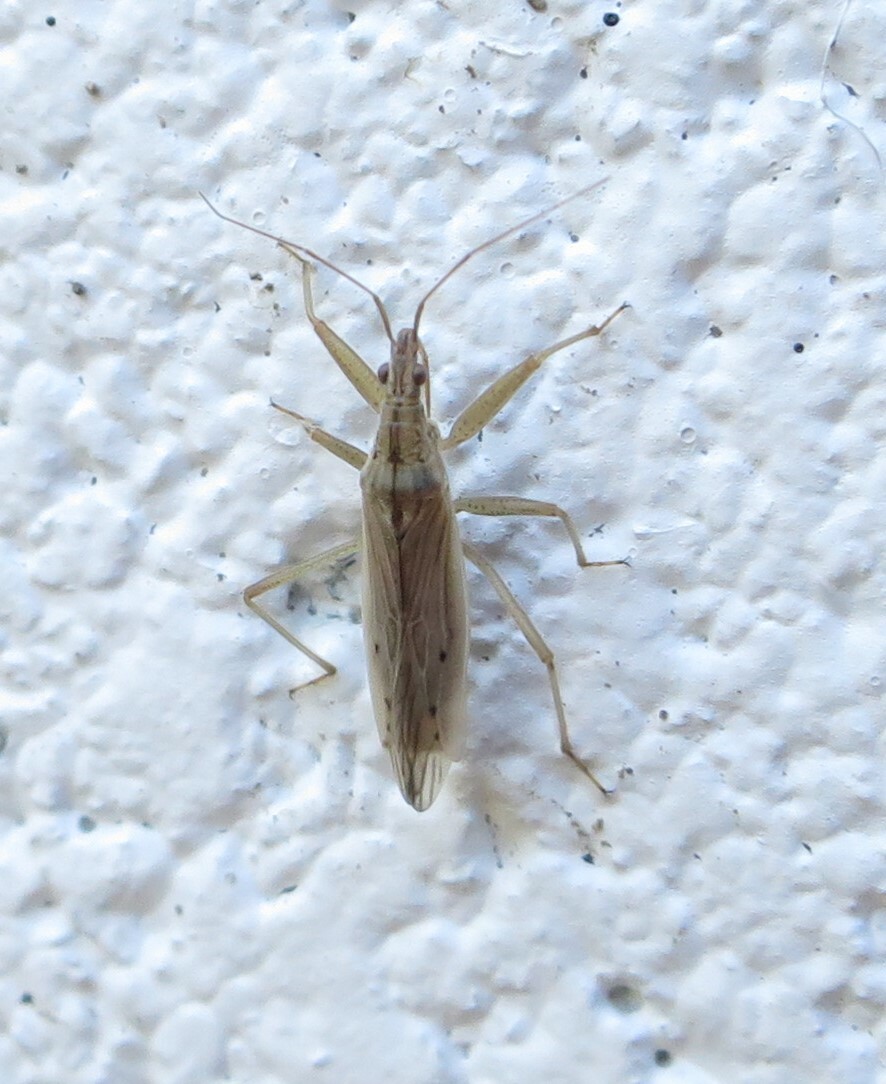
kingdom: Animalia
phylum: Arthropoda
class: Insecta
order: Hemiptera
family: Nabidae
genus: Nabis
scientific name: Nabis
